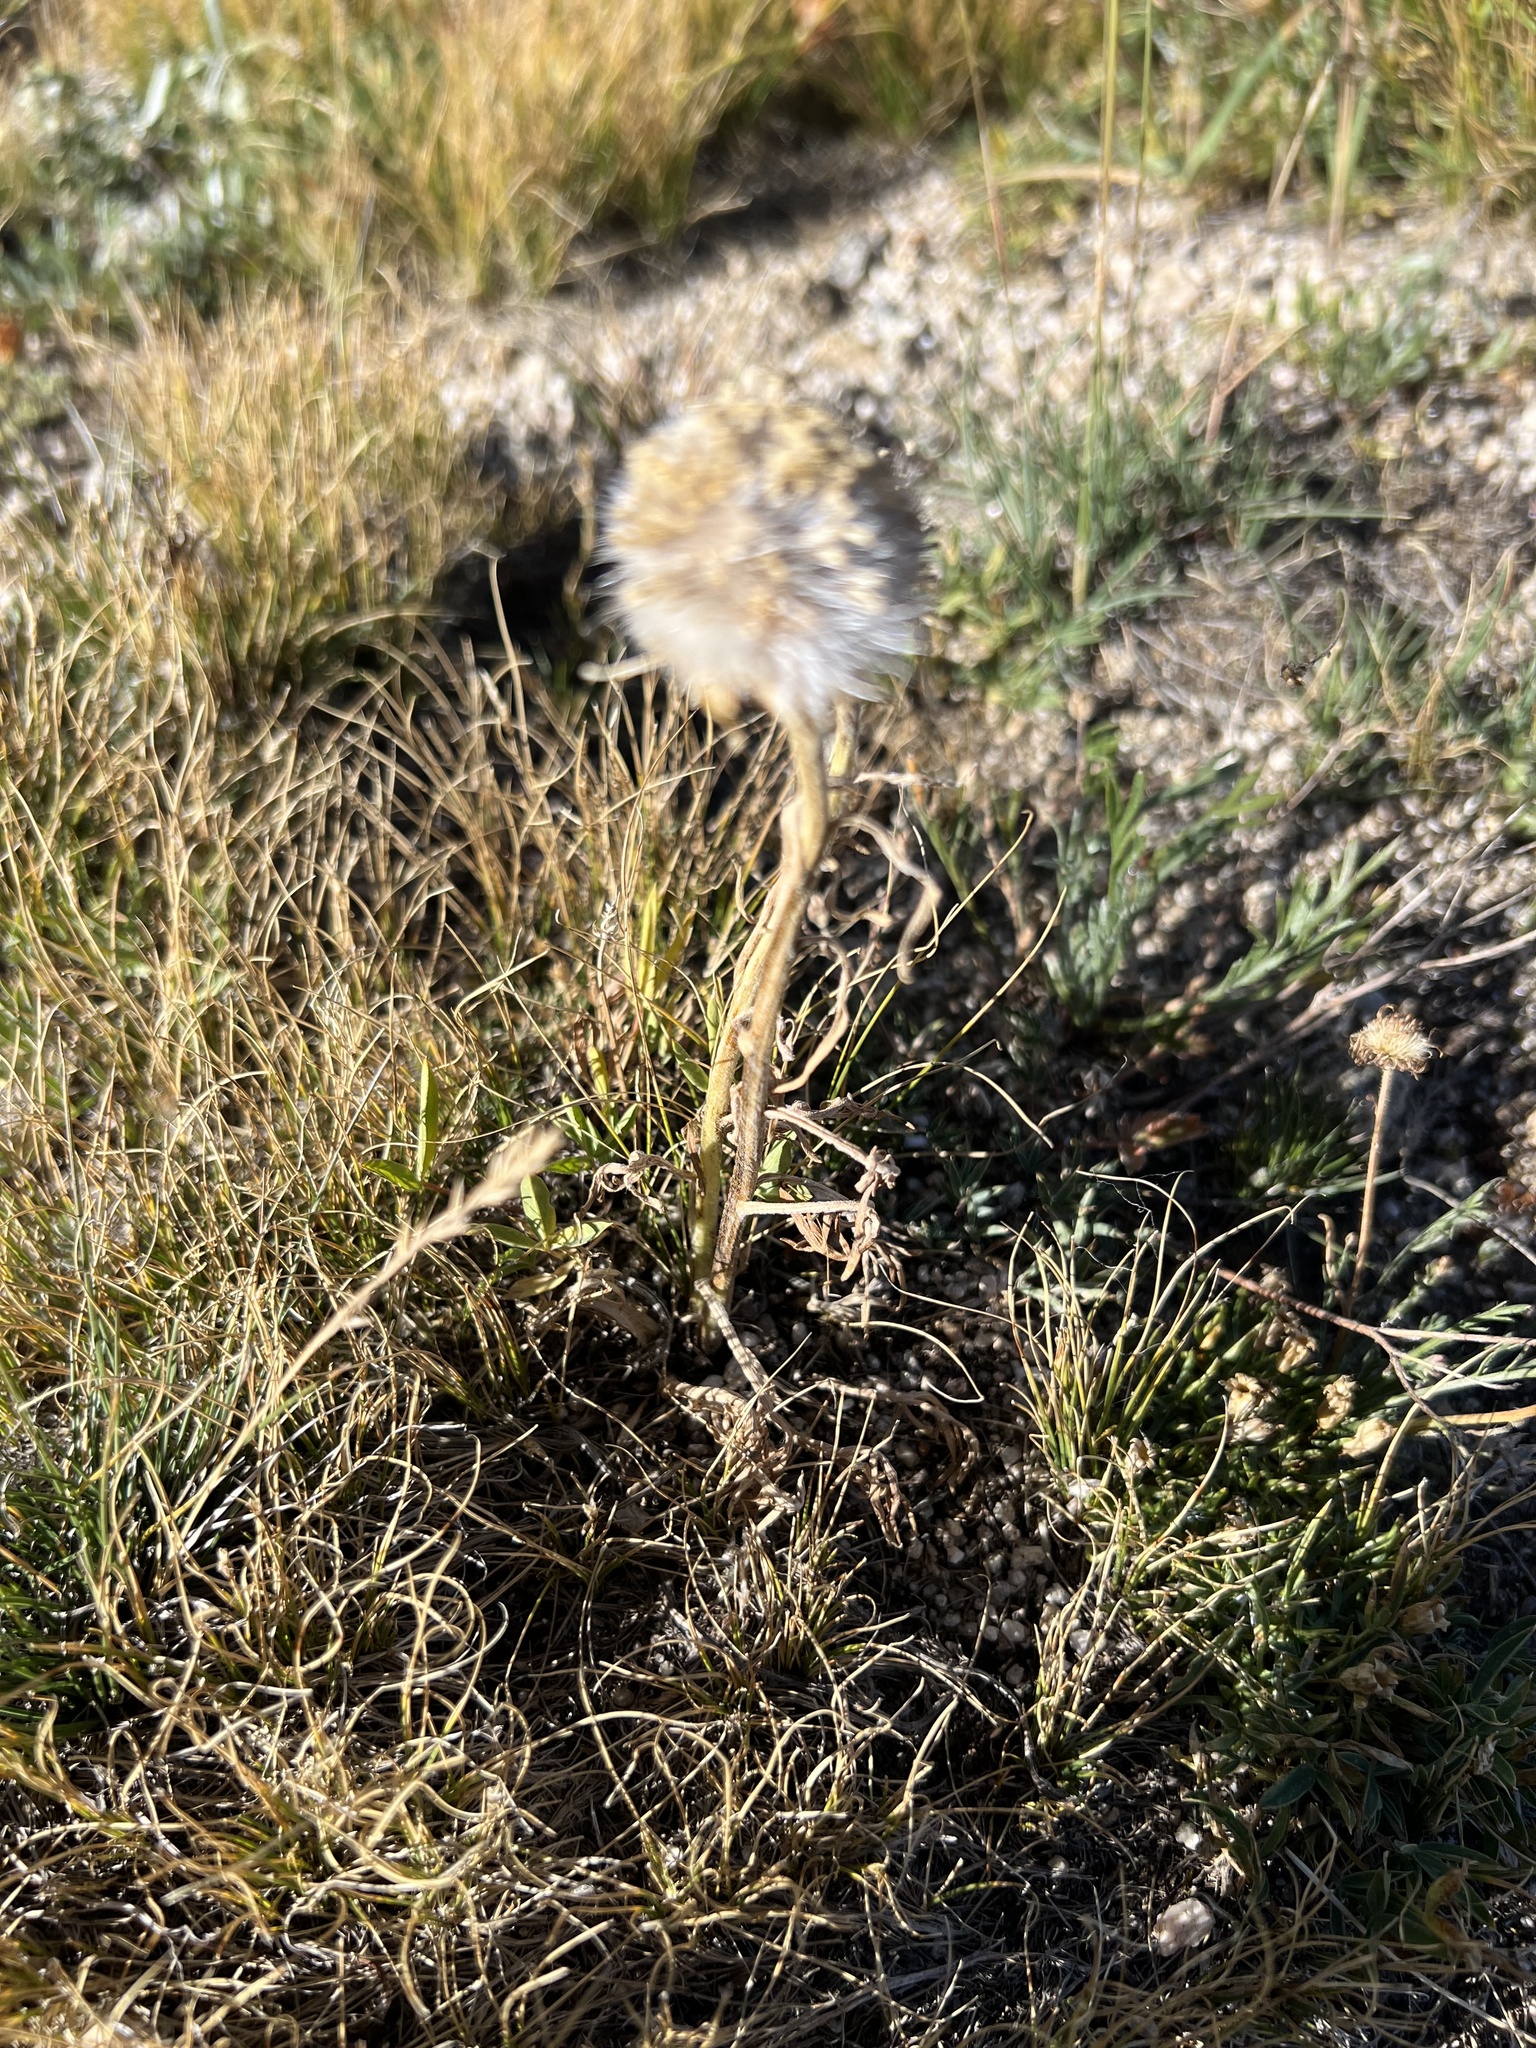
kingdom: Plantae
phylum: Tracheophyta
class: Magnoliopsida
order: Asterales
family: Asteraceae
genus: Hymenoxys
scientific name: Hymenoxys grandiflora
